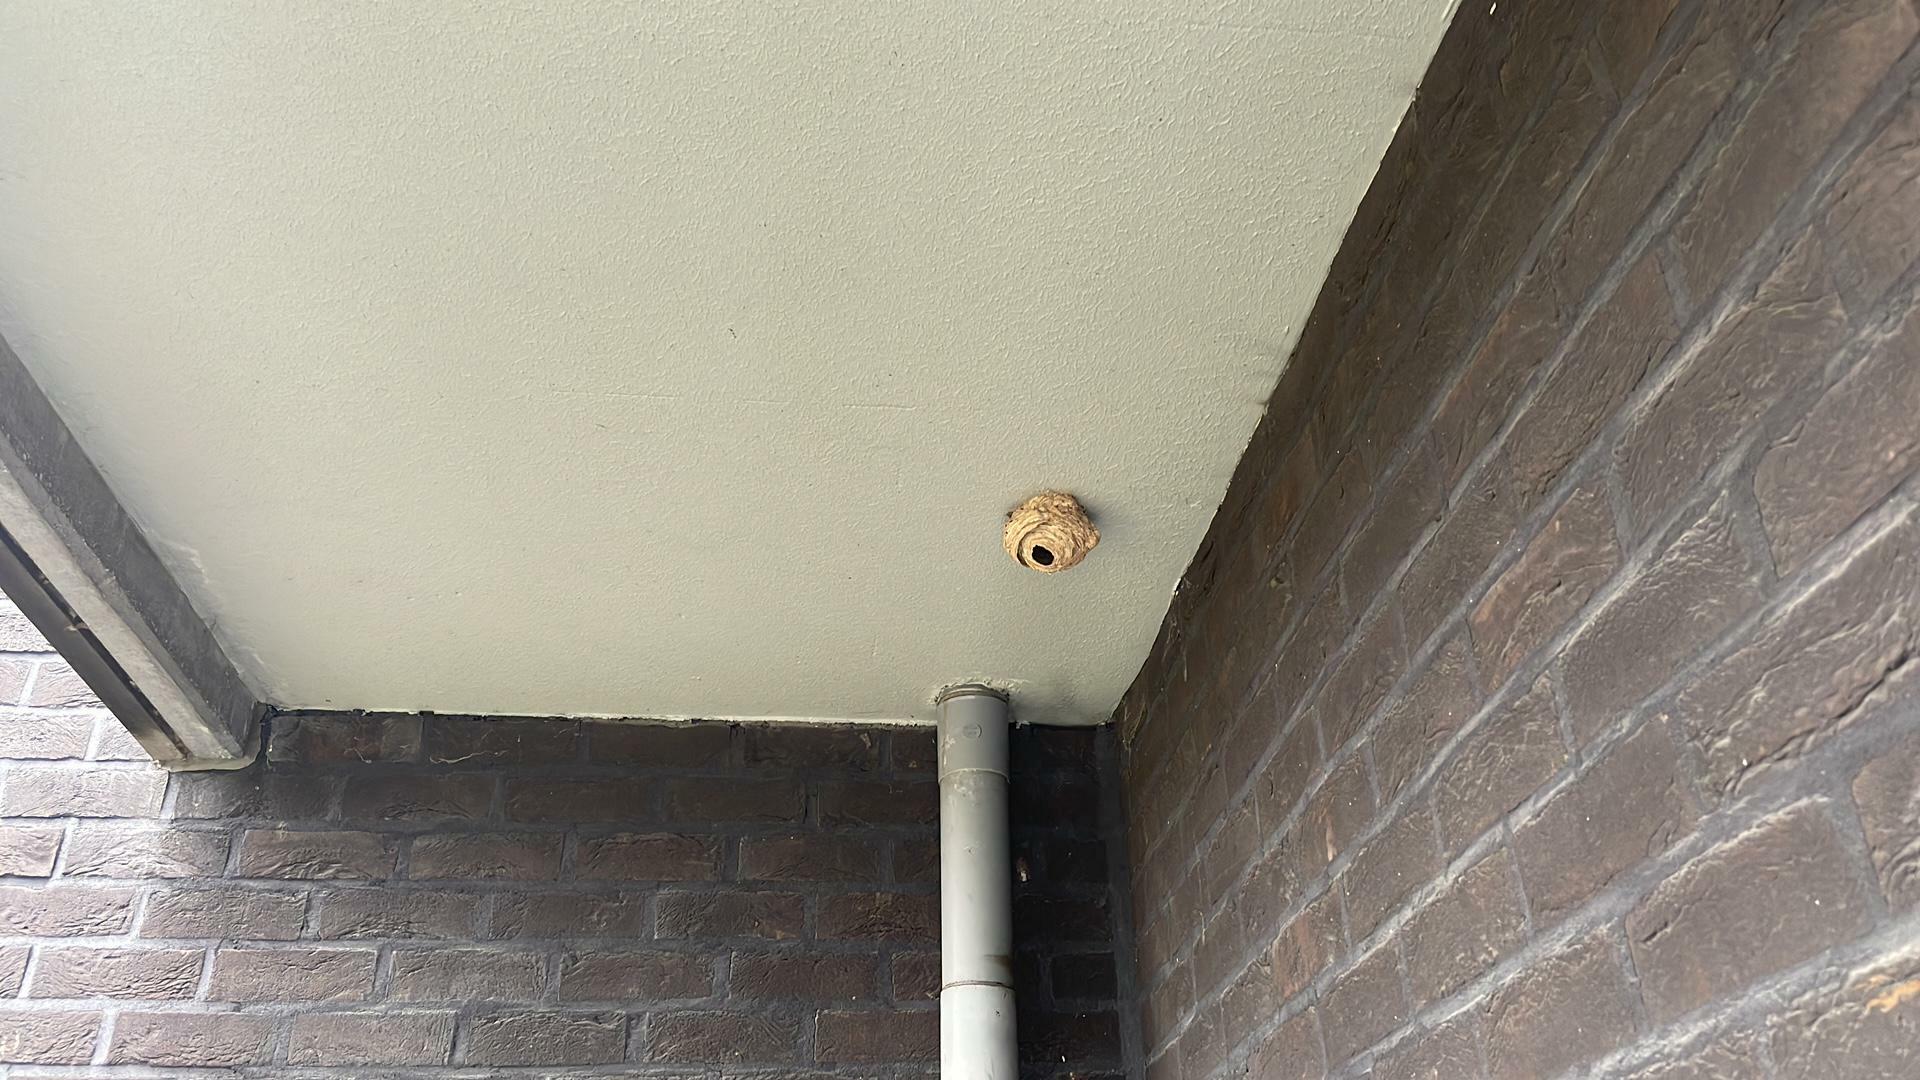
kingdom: Animalia
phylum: Arthropoda
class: Insecta
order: Hymenoptera
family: Vespidae
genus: Vespa
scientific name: Vespa velutina
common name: Asian hornet
